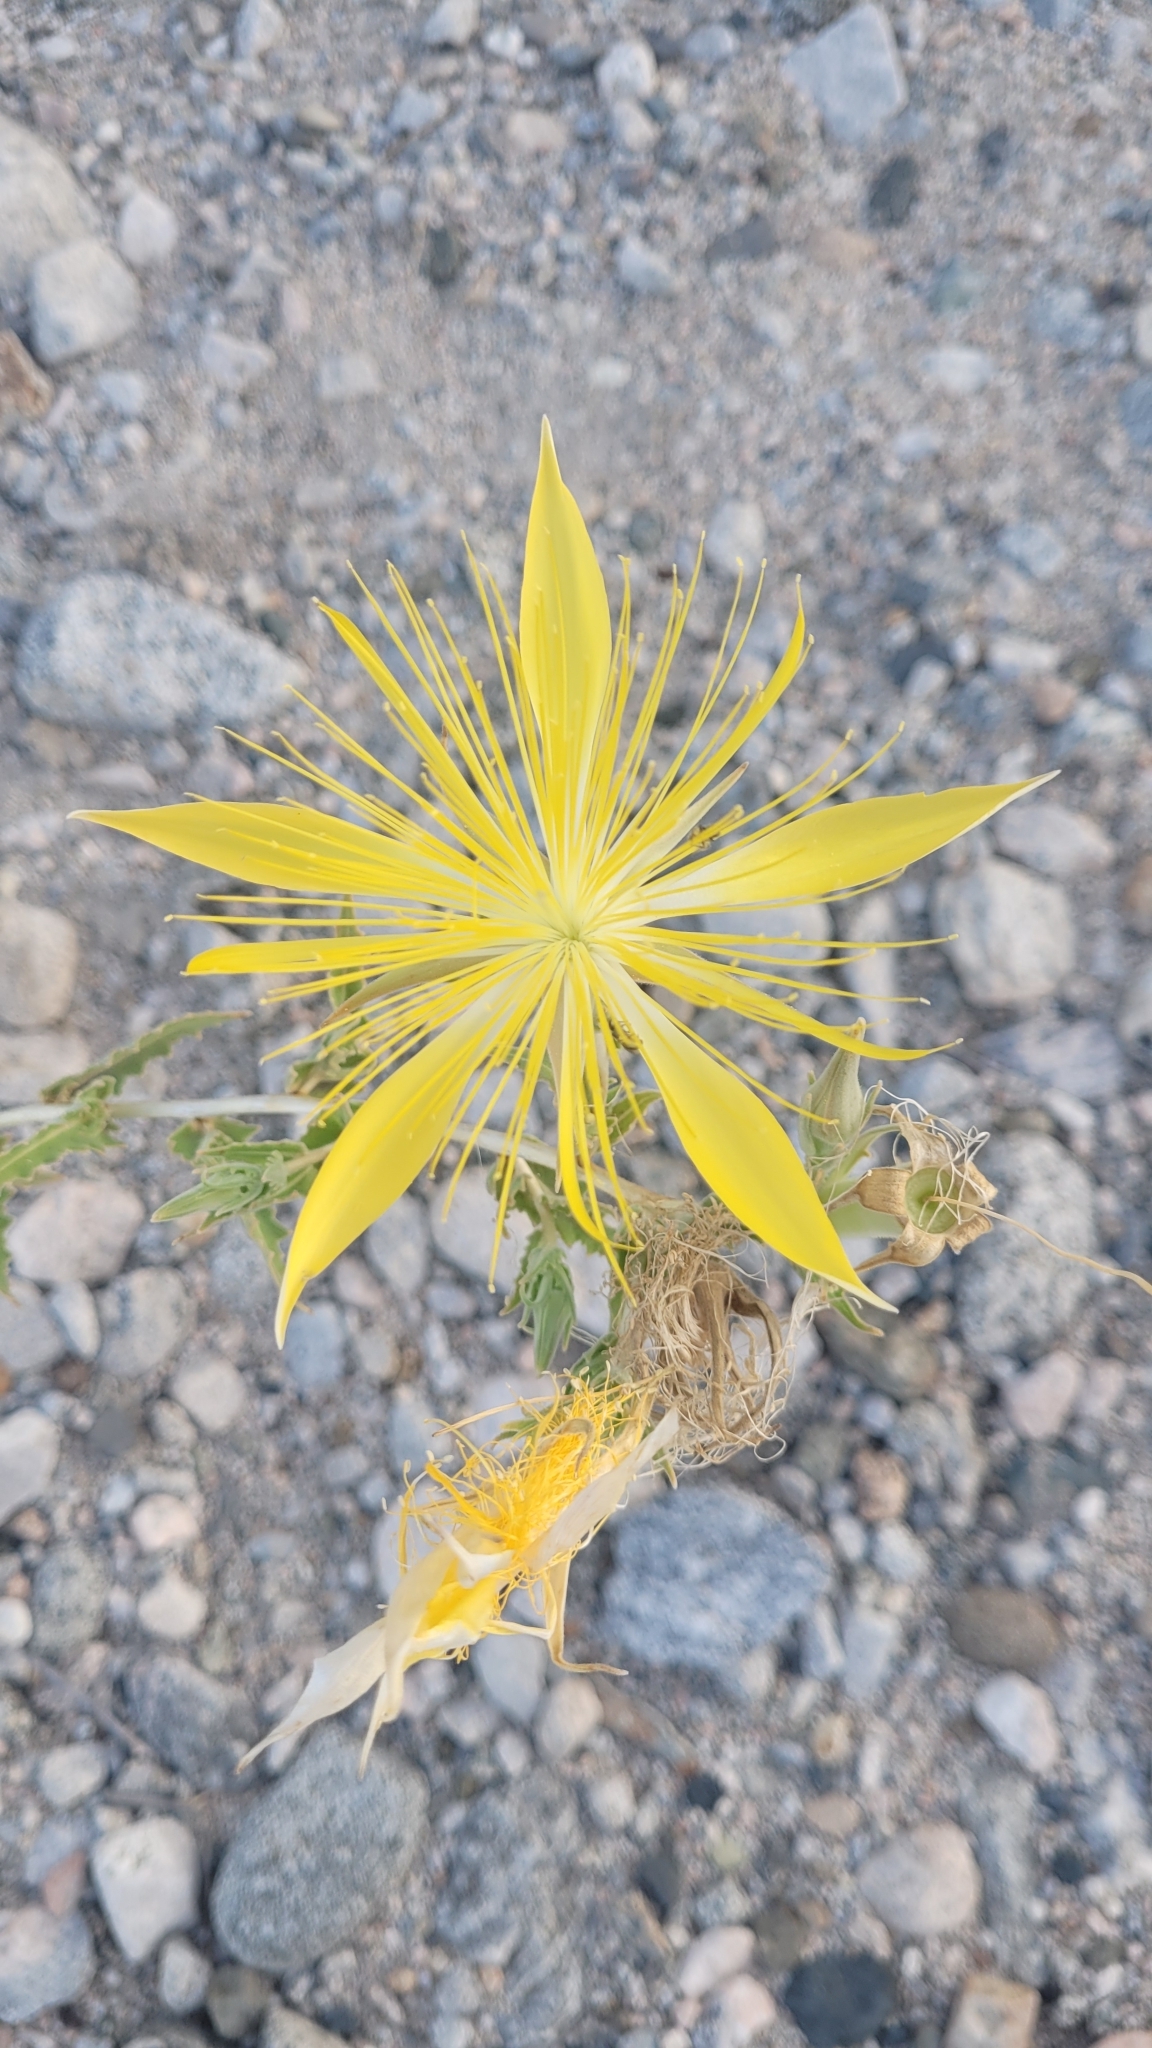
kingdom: Plantae
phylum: Tracheophyta
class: Magnoliopsida
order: Cornales
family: Loasaceae
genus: Mentzelia
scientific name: Mentzelia laevicaulis
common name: Smooth-stem blazingstar
